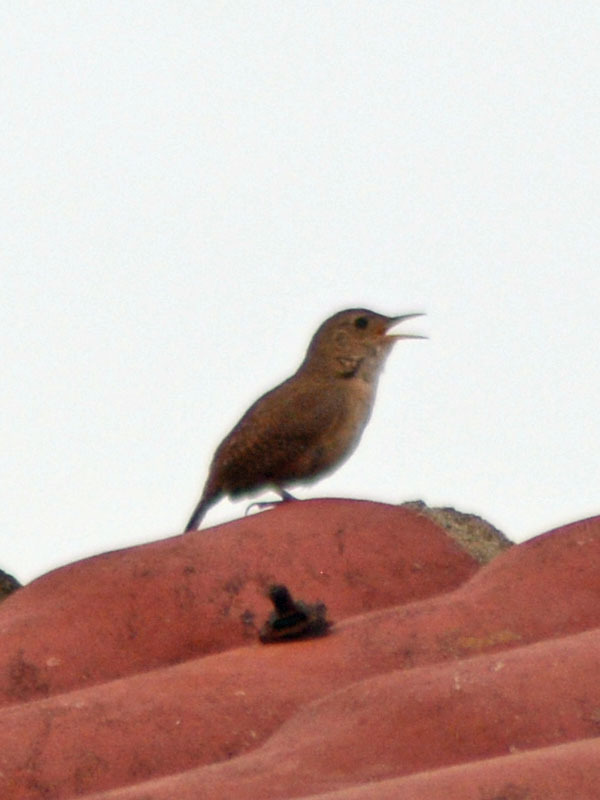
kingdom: Animalia
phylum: Chordata
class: Aves
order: Passeriformes
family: Troglodytidae
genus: Troglodytes
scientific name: Troglodytes aedon
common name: House wren
